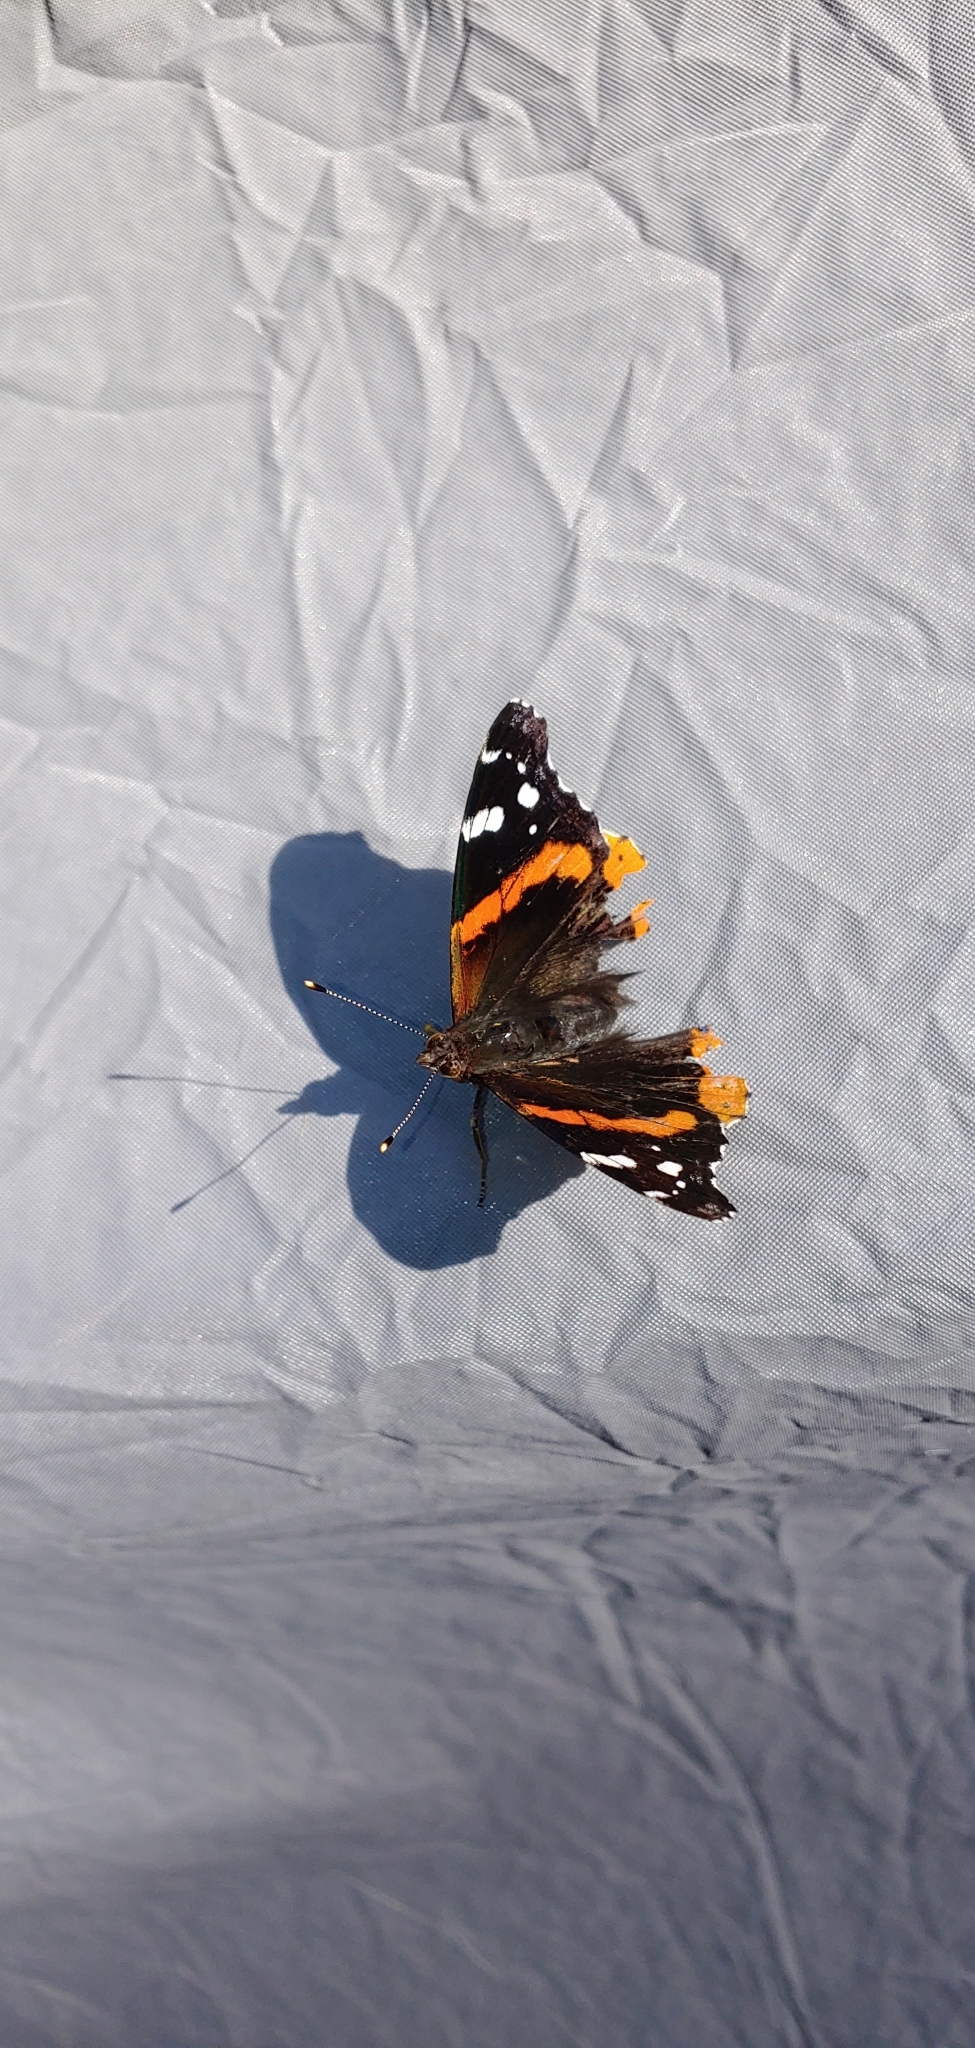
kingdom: Animalia
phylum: Arthropoda
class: Insecta
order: Lepidoptera
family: Nymphalidae
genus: Vanessa
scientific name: Vanessa atalanta
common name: Red admiral
